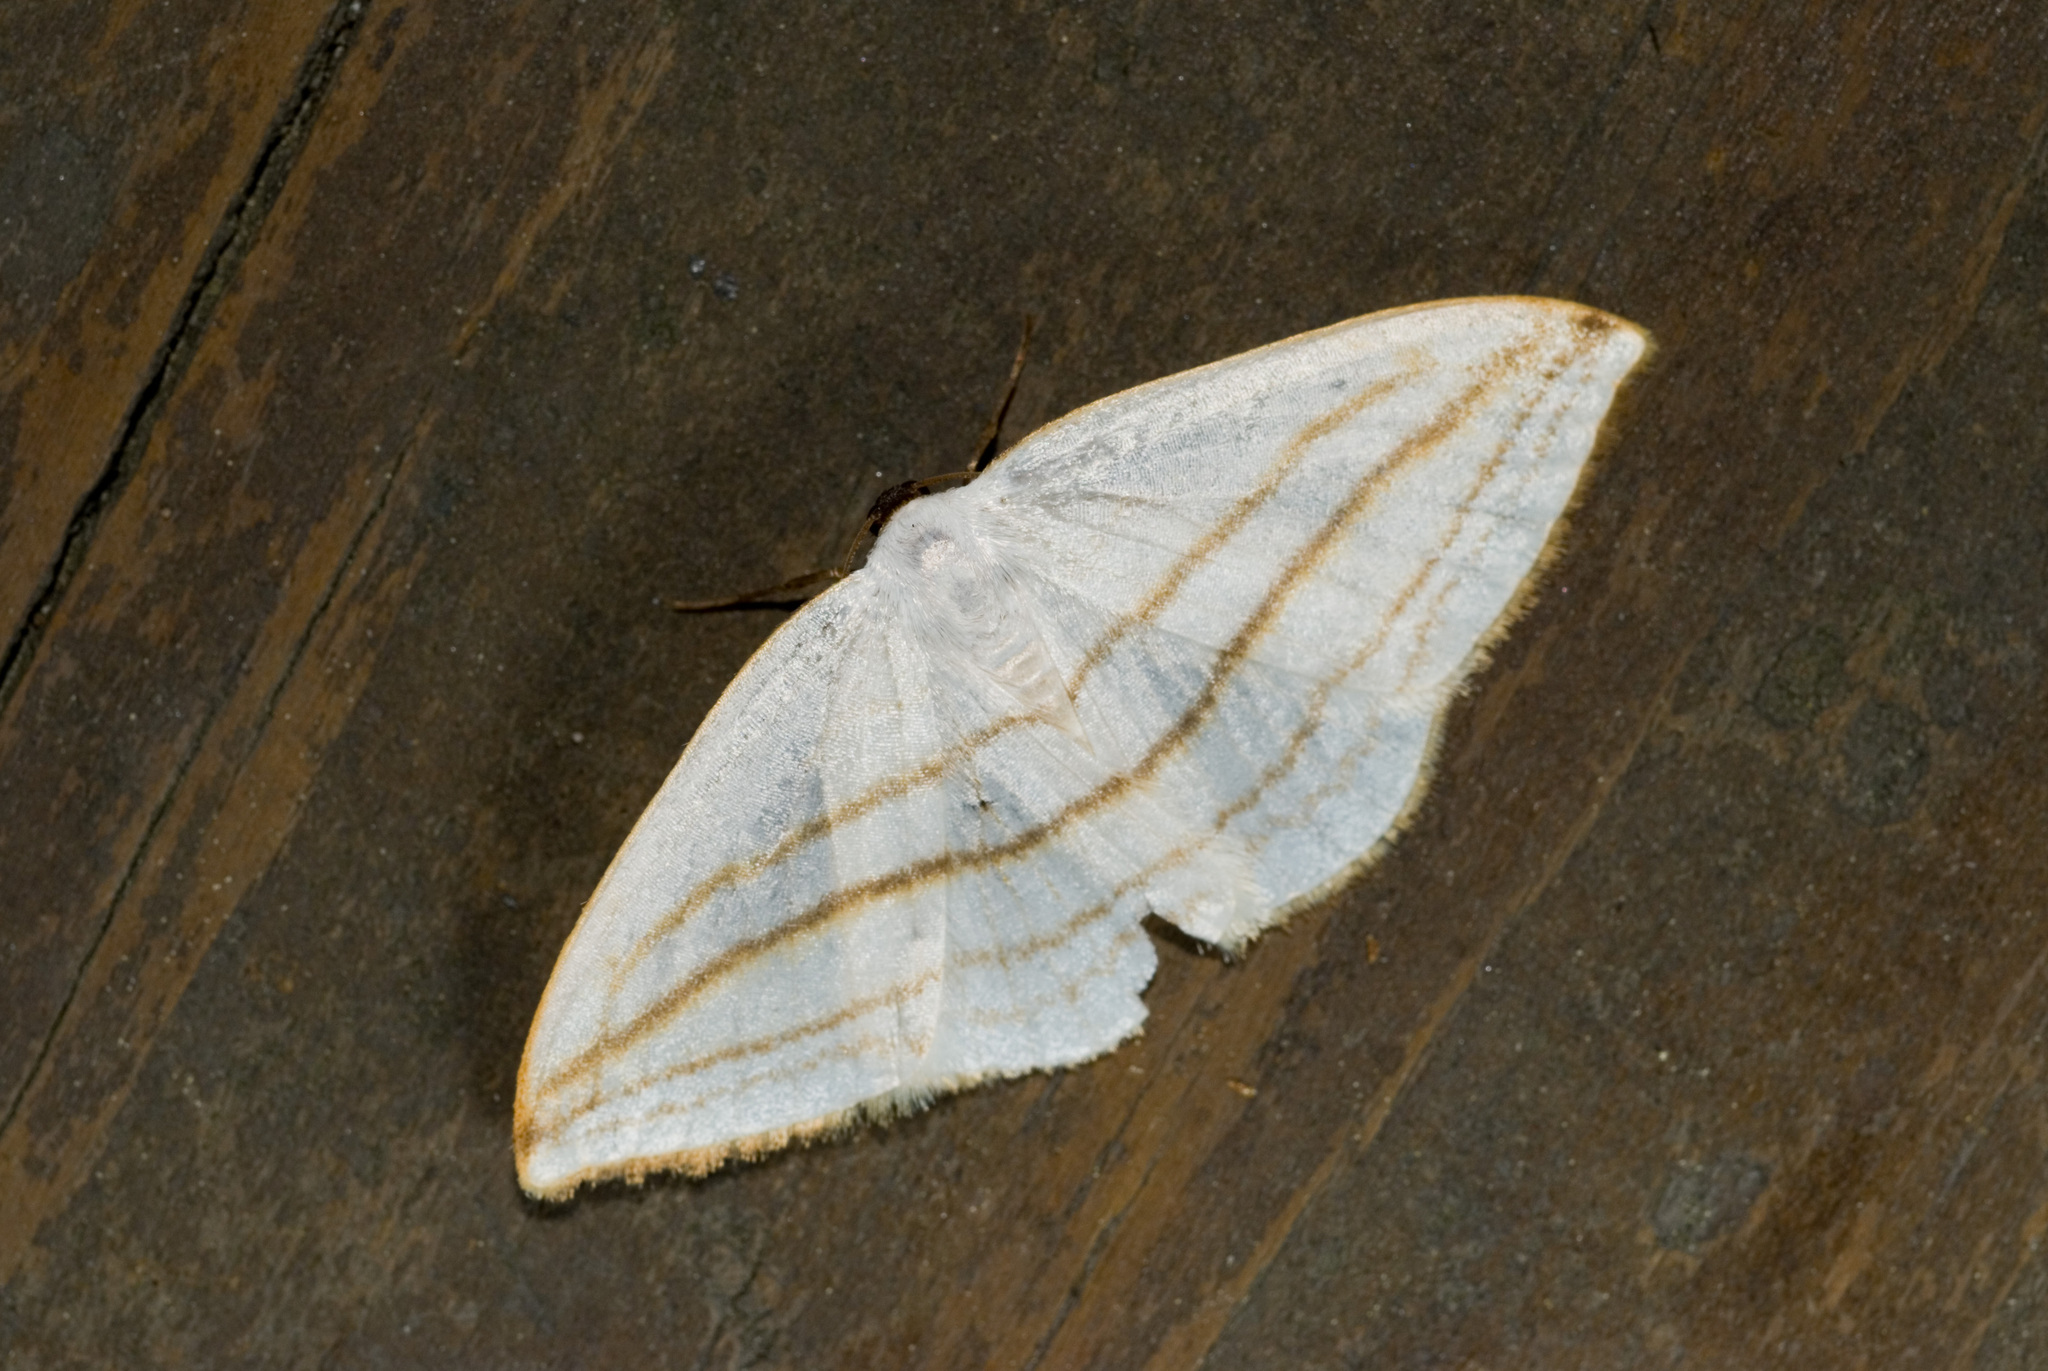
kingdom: Animalia
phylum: Arthropoda
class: Insecta
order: Lepidoptera
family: Drepanidae
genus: Ditrigona
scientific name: Ditrigona conflexaria
